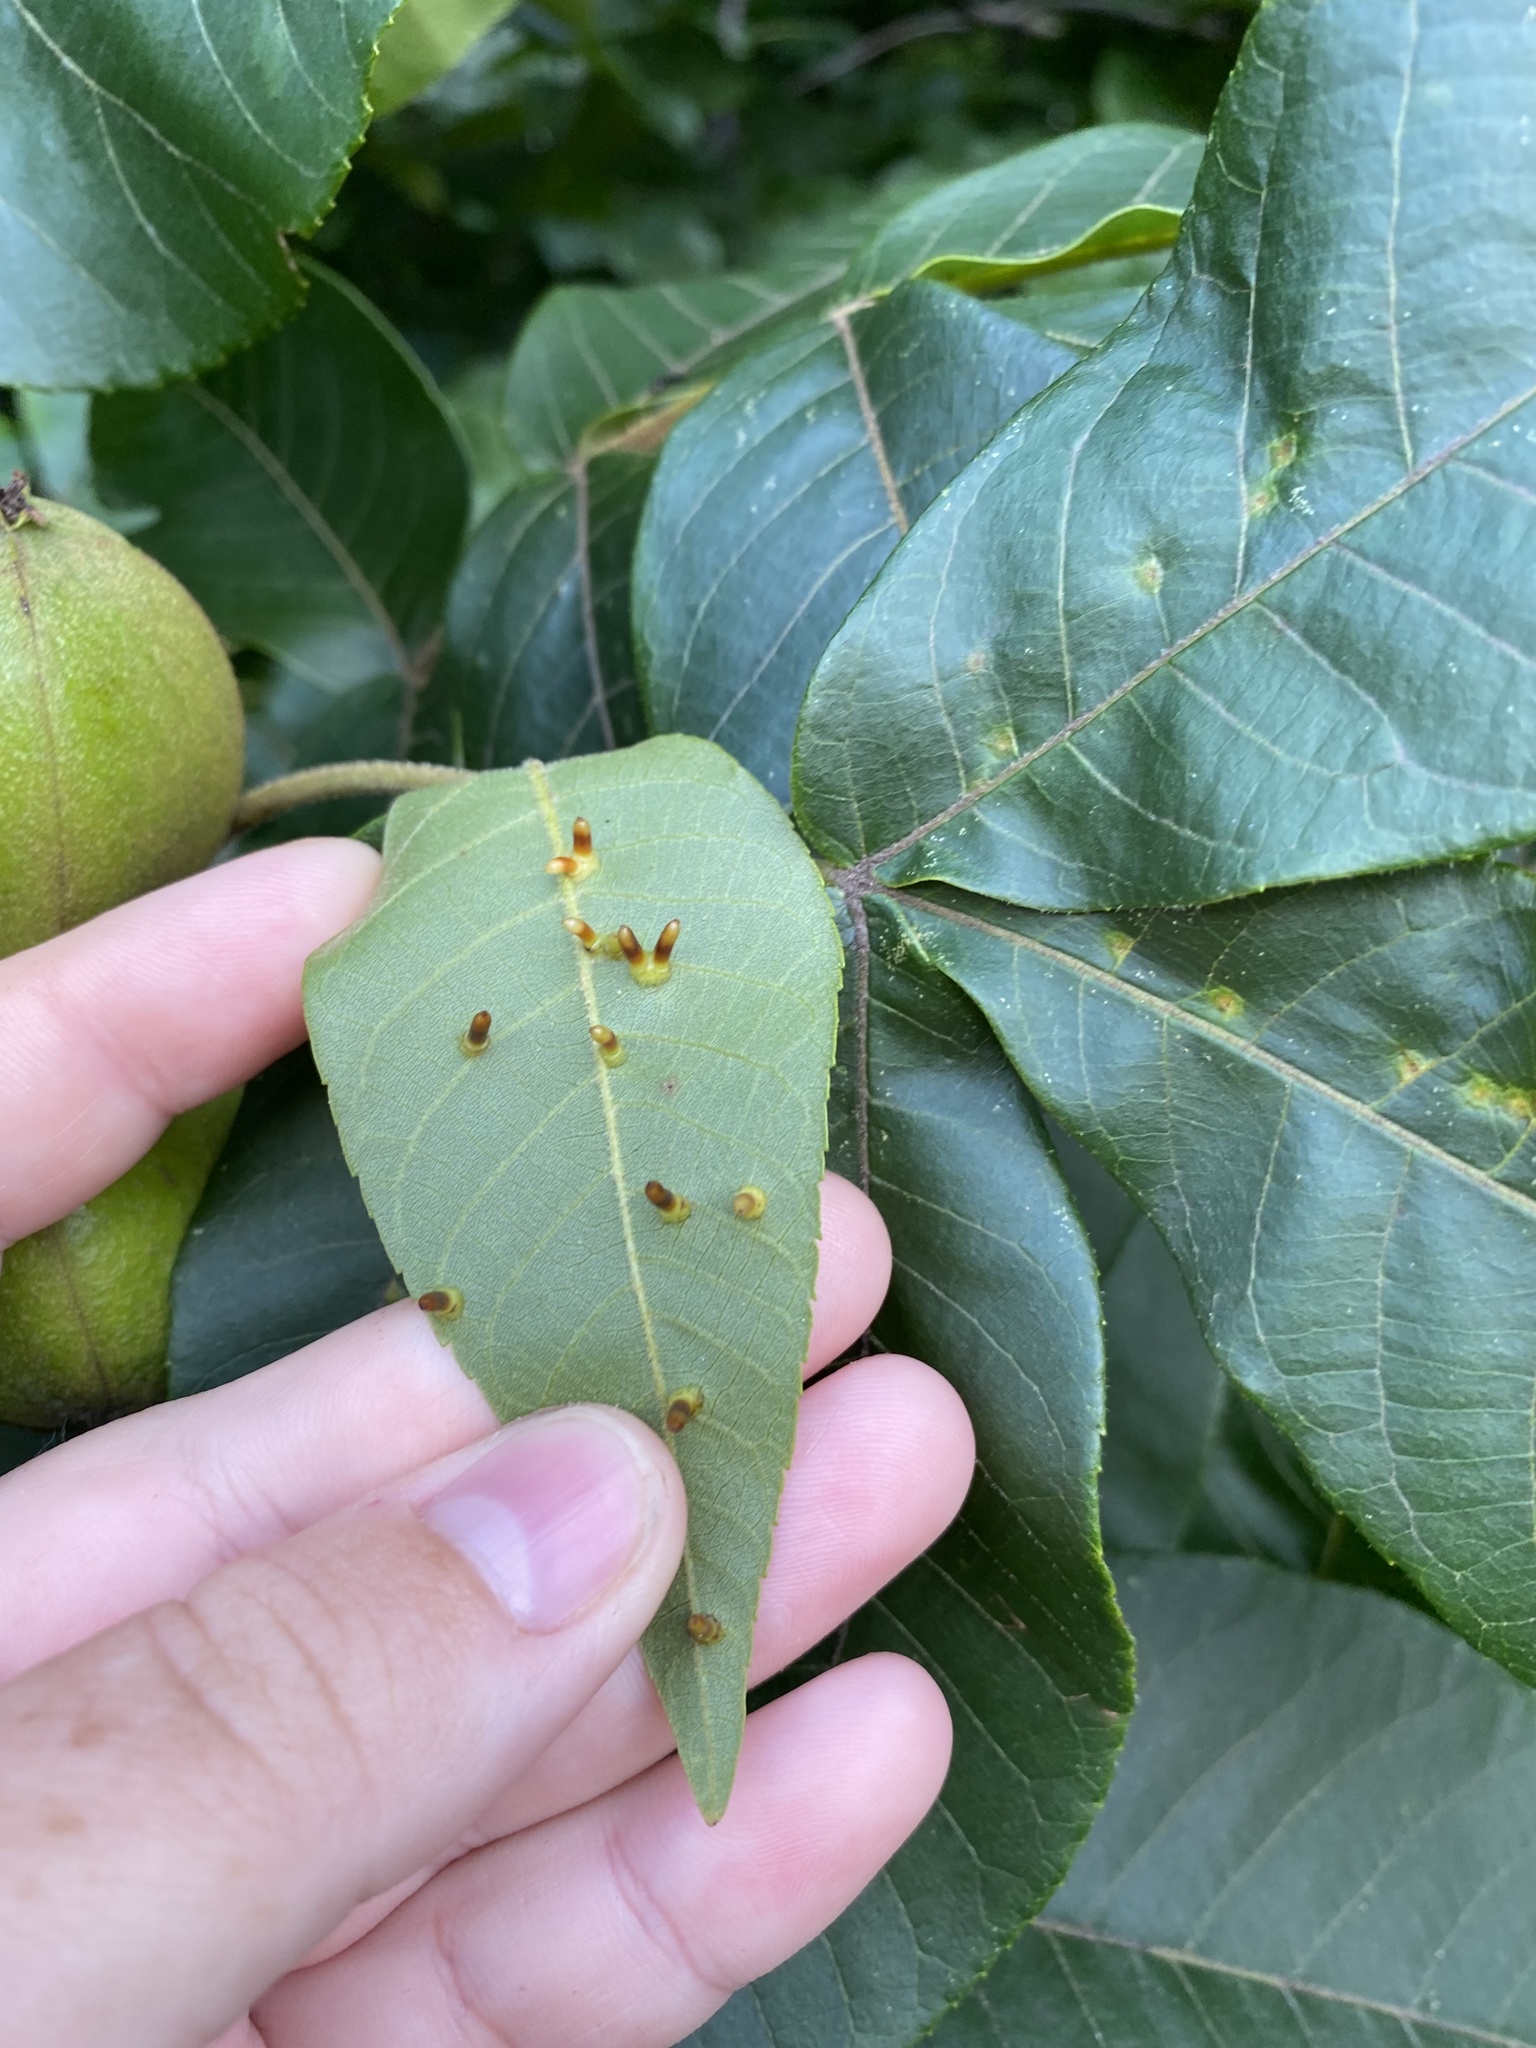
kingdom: Animalia
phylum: Arthropoda
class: Insecta
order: Diptera
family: Cecidomyiidae
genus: Caryomyia
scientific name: Caryomyia tubicola
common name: Hickory bullet gall midge
